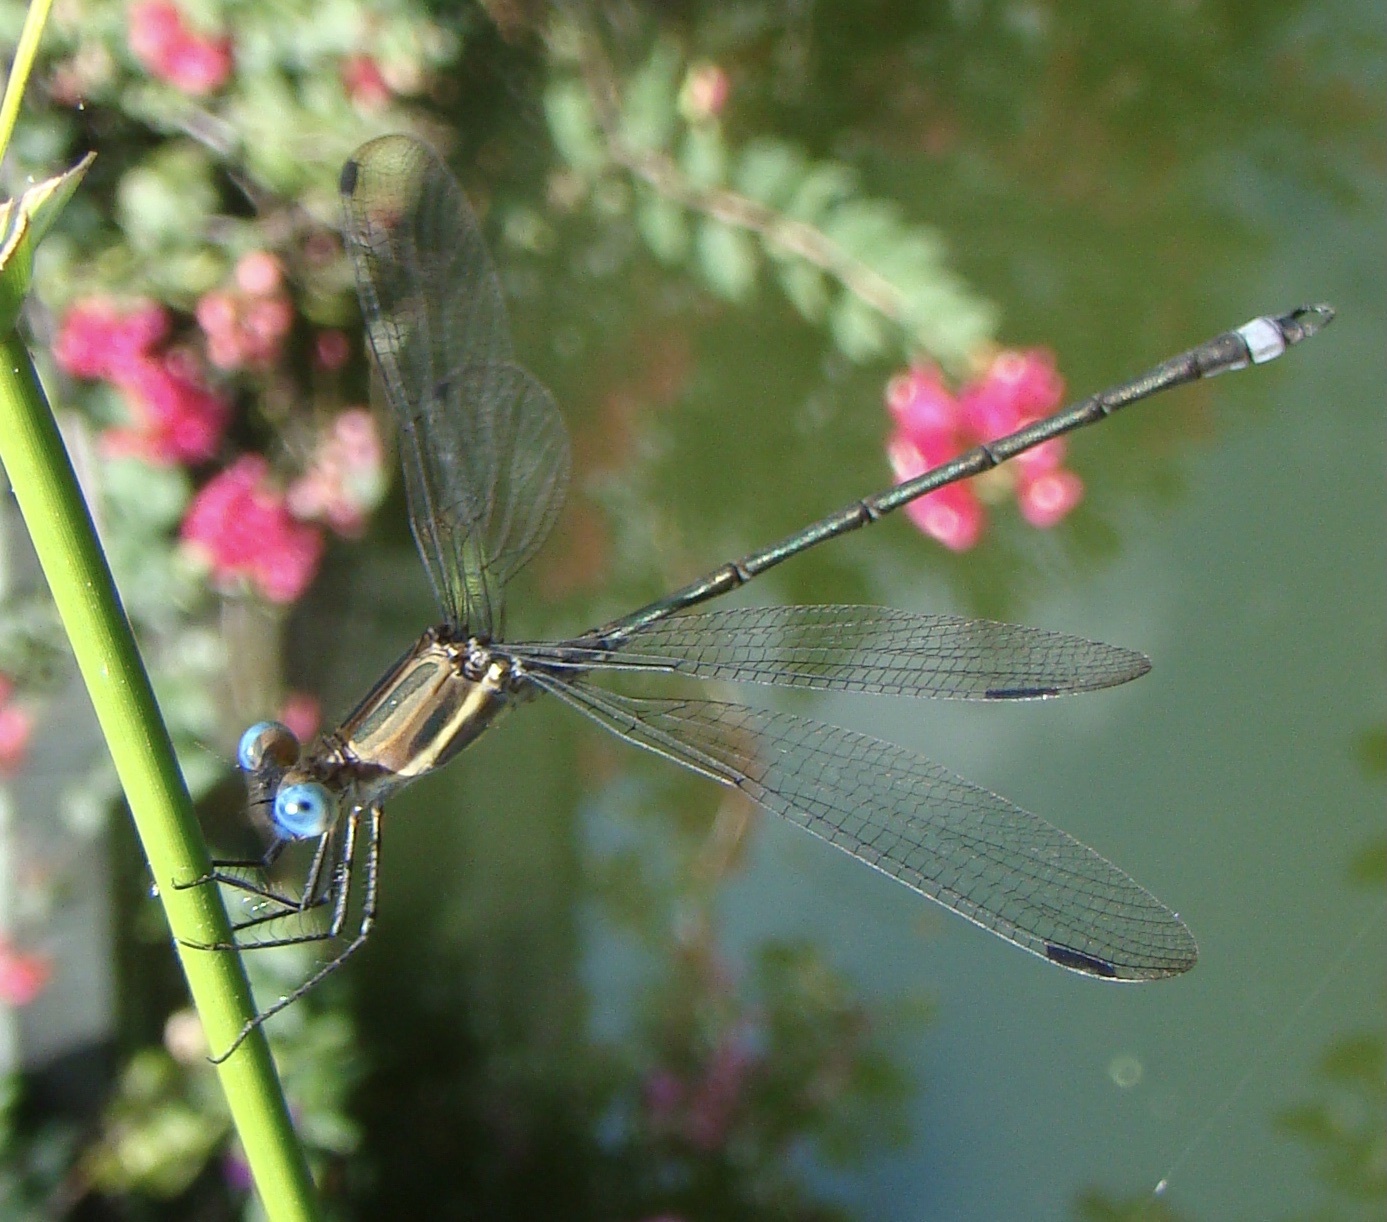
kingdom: Animalia
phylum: Arthropoda
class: Insecta
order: Odonata
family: Lestidae
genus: Archilestes
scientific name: Archilestes grandis
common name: Great spreadwing
